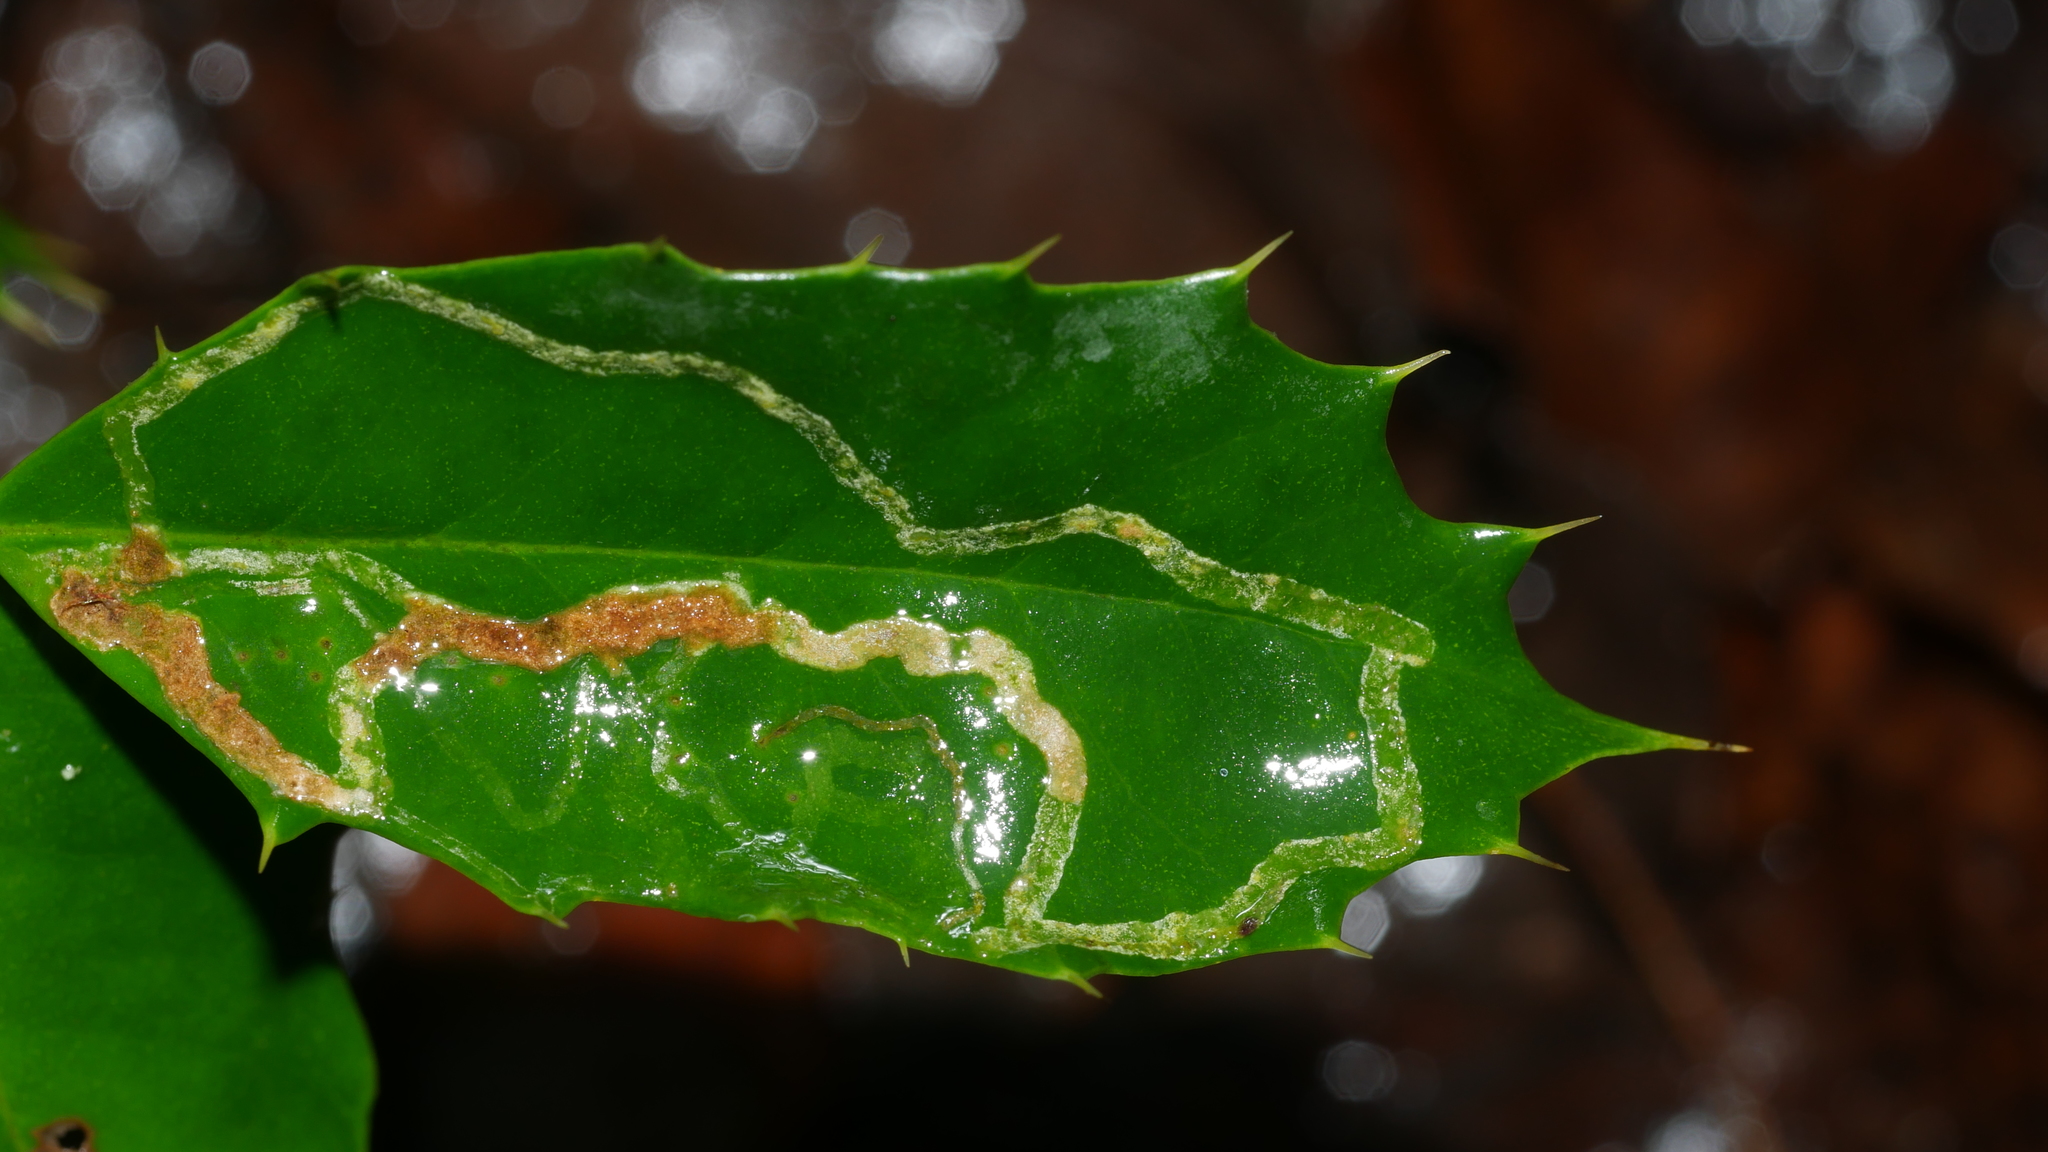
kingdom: Animalia
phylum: Arthropoda
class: Insecta
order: Diptera
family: Agromyzidae
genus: Phytomyza
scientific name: Phytomyza opacae
